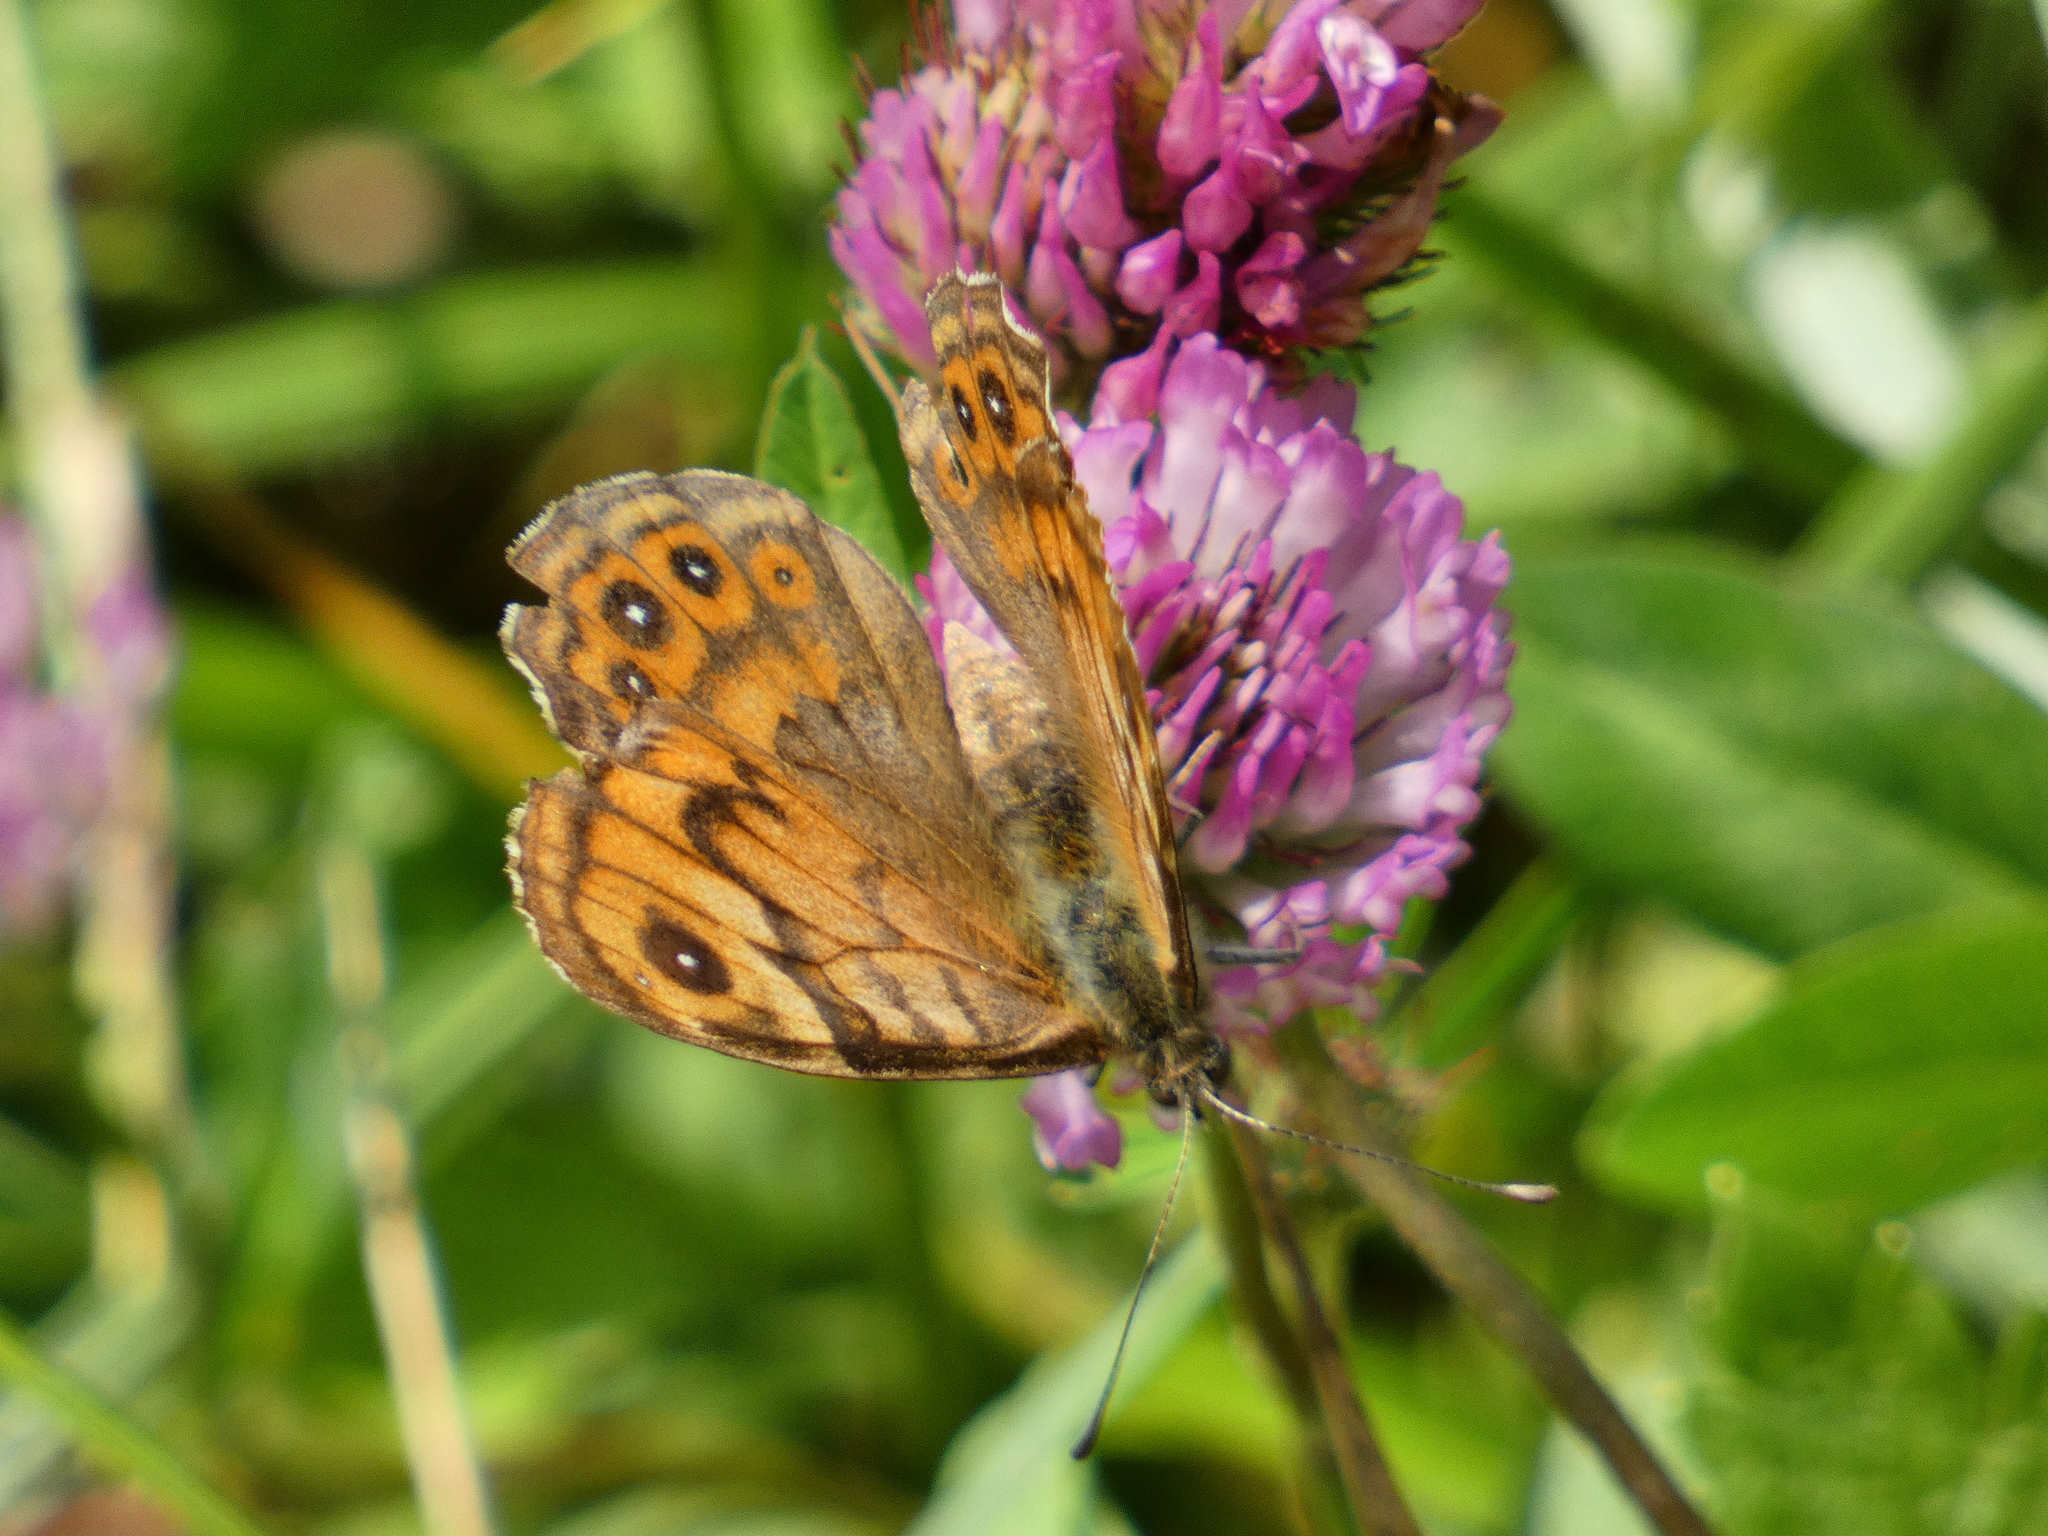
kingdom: Animalia
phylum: Arthropoda
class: Insecta
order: Lepidoptera
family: Nymphalidae
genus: Pararge
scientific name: Pararge Lasiommata megera
